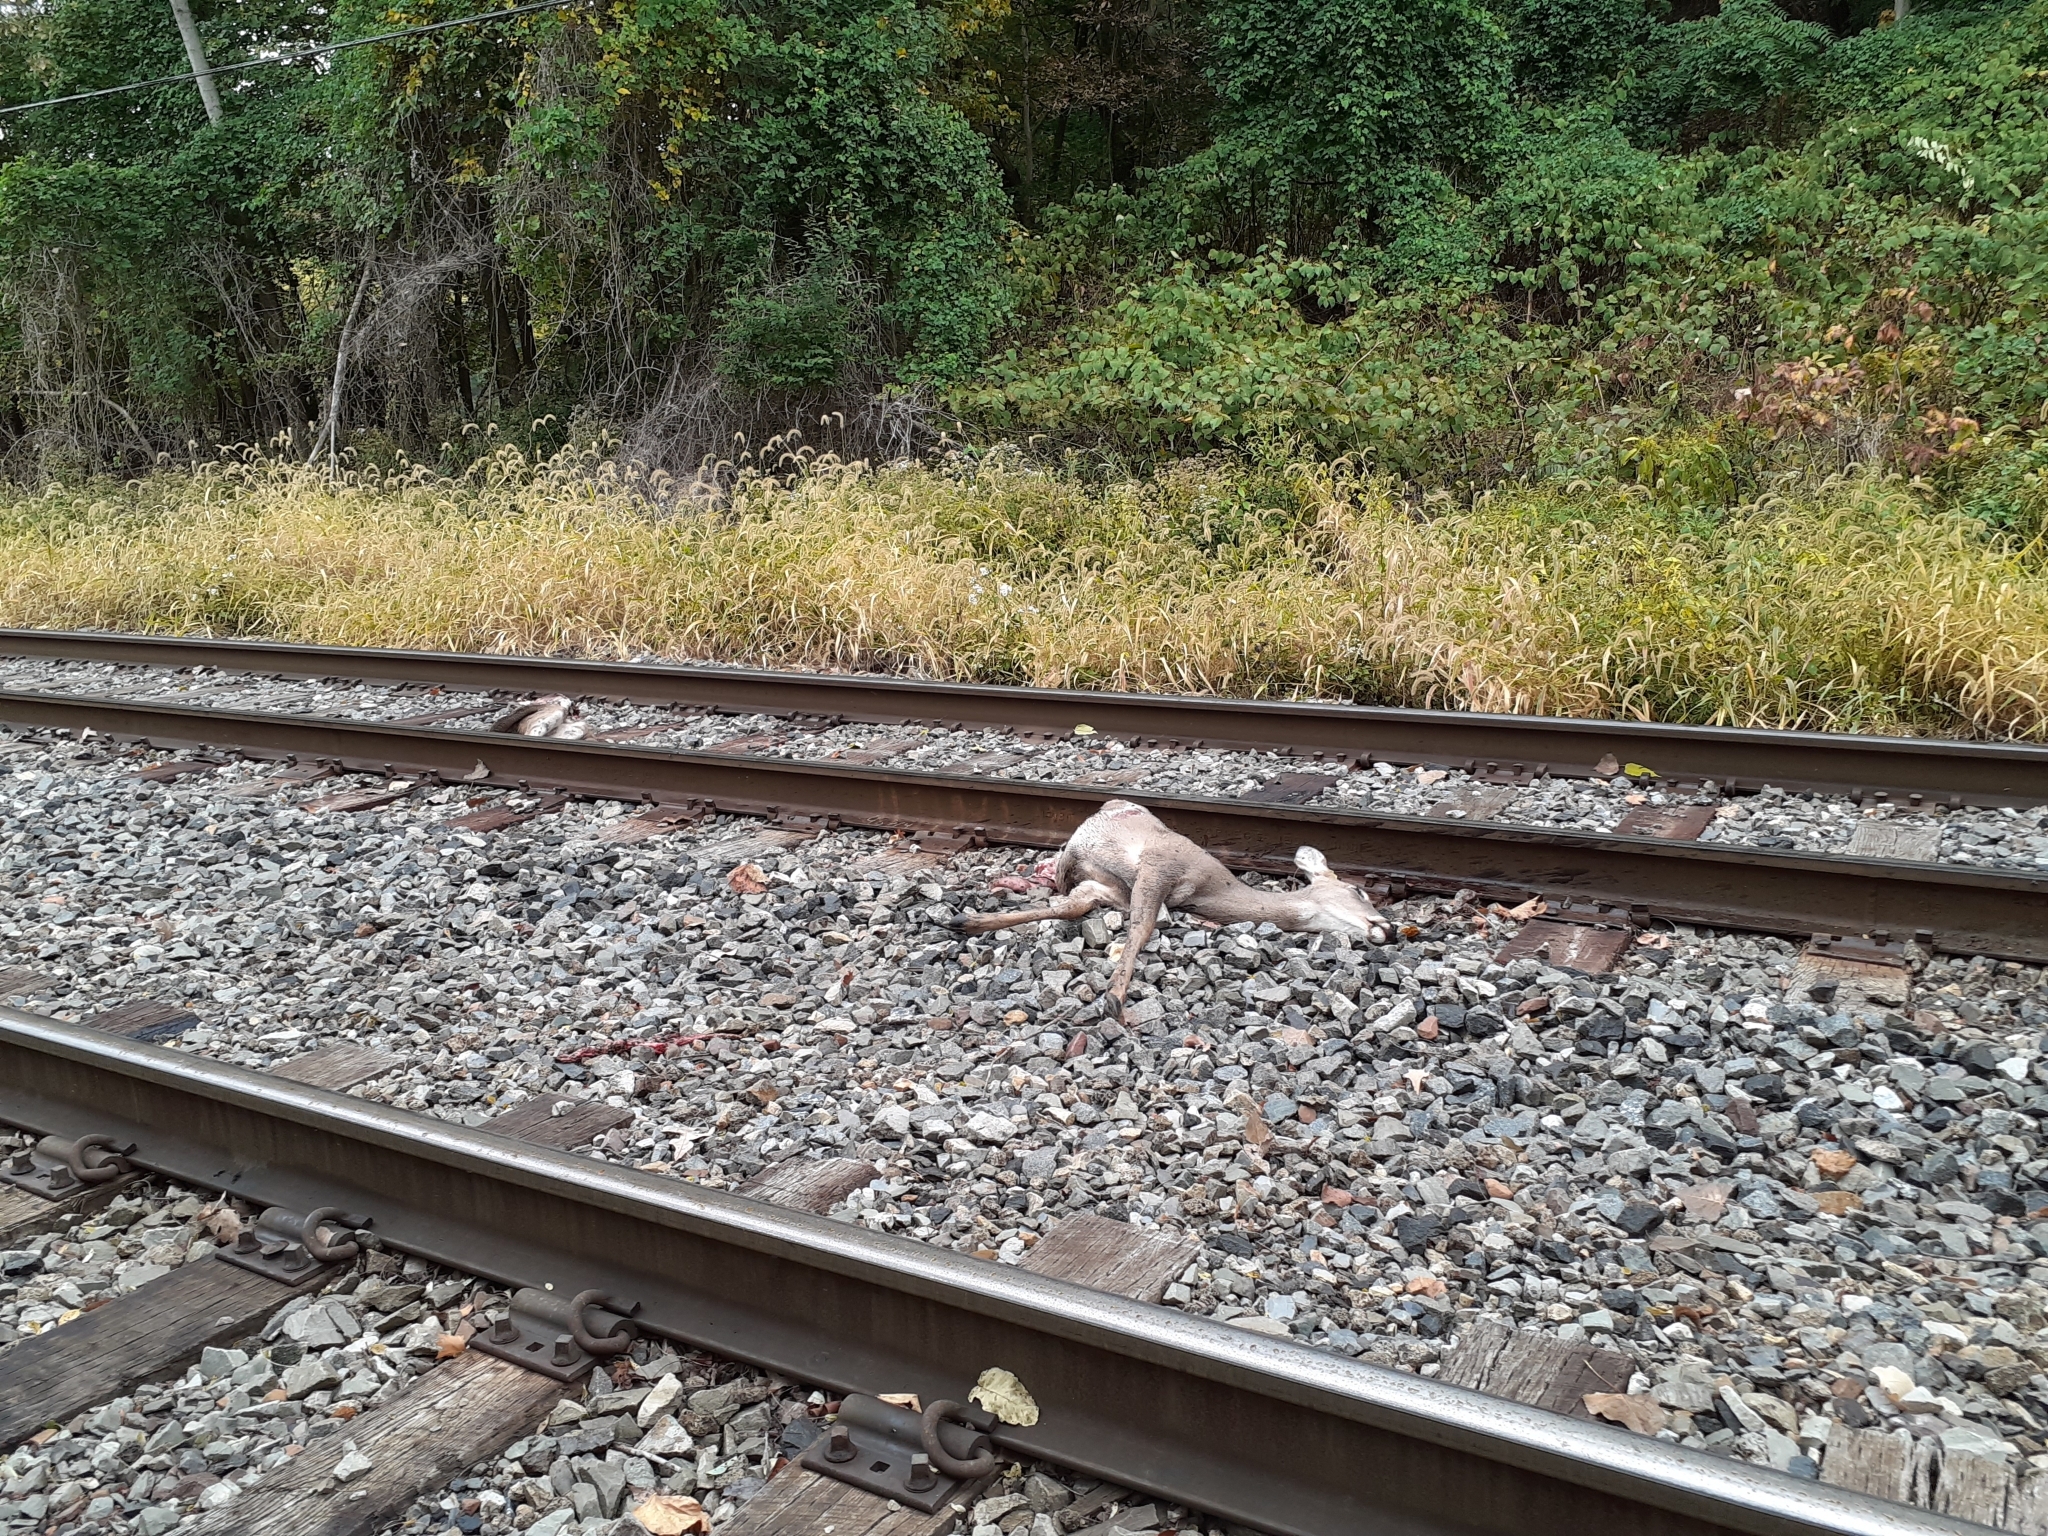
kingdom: Animalia
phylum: Chordata
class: Mammalia
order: Artiodactyla
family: Cervidae
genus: Odocoileus
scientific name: Odocoileus virginianus
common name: White-tailed deer
